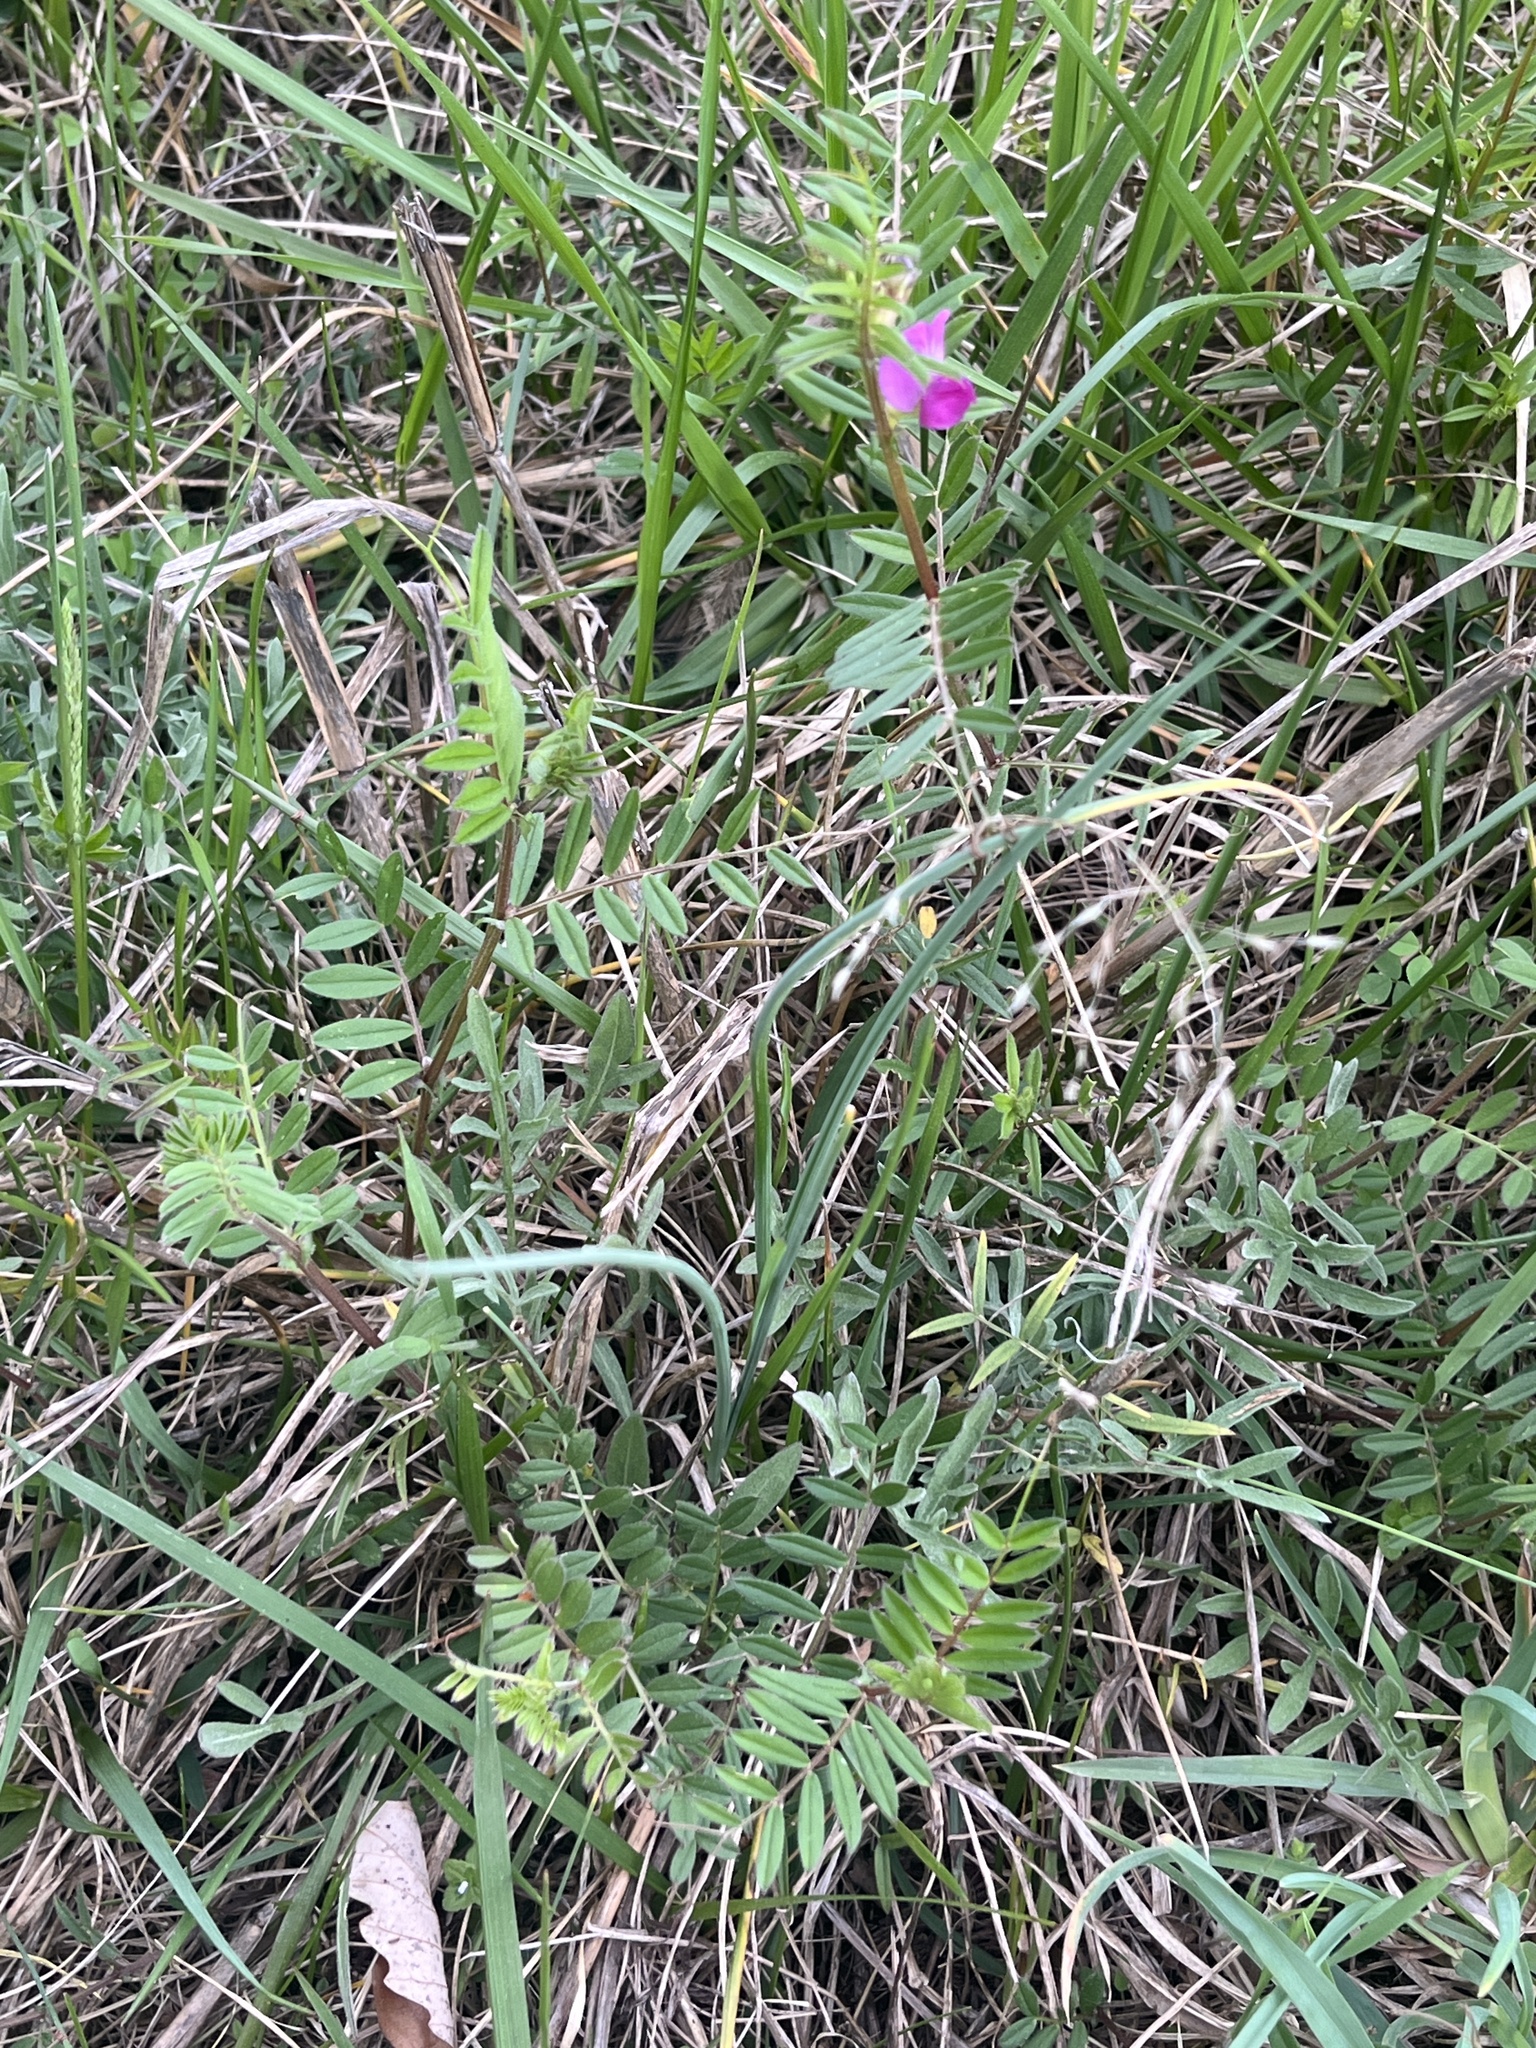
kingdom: Plantae
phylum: Tracheophyta
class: Magnoliopsida
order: Fabales
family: Fabaceae
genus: Vicia
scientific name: Vicia sativa
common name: Garden vetch
